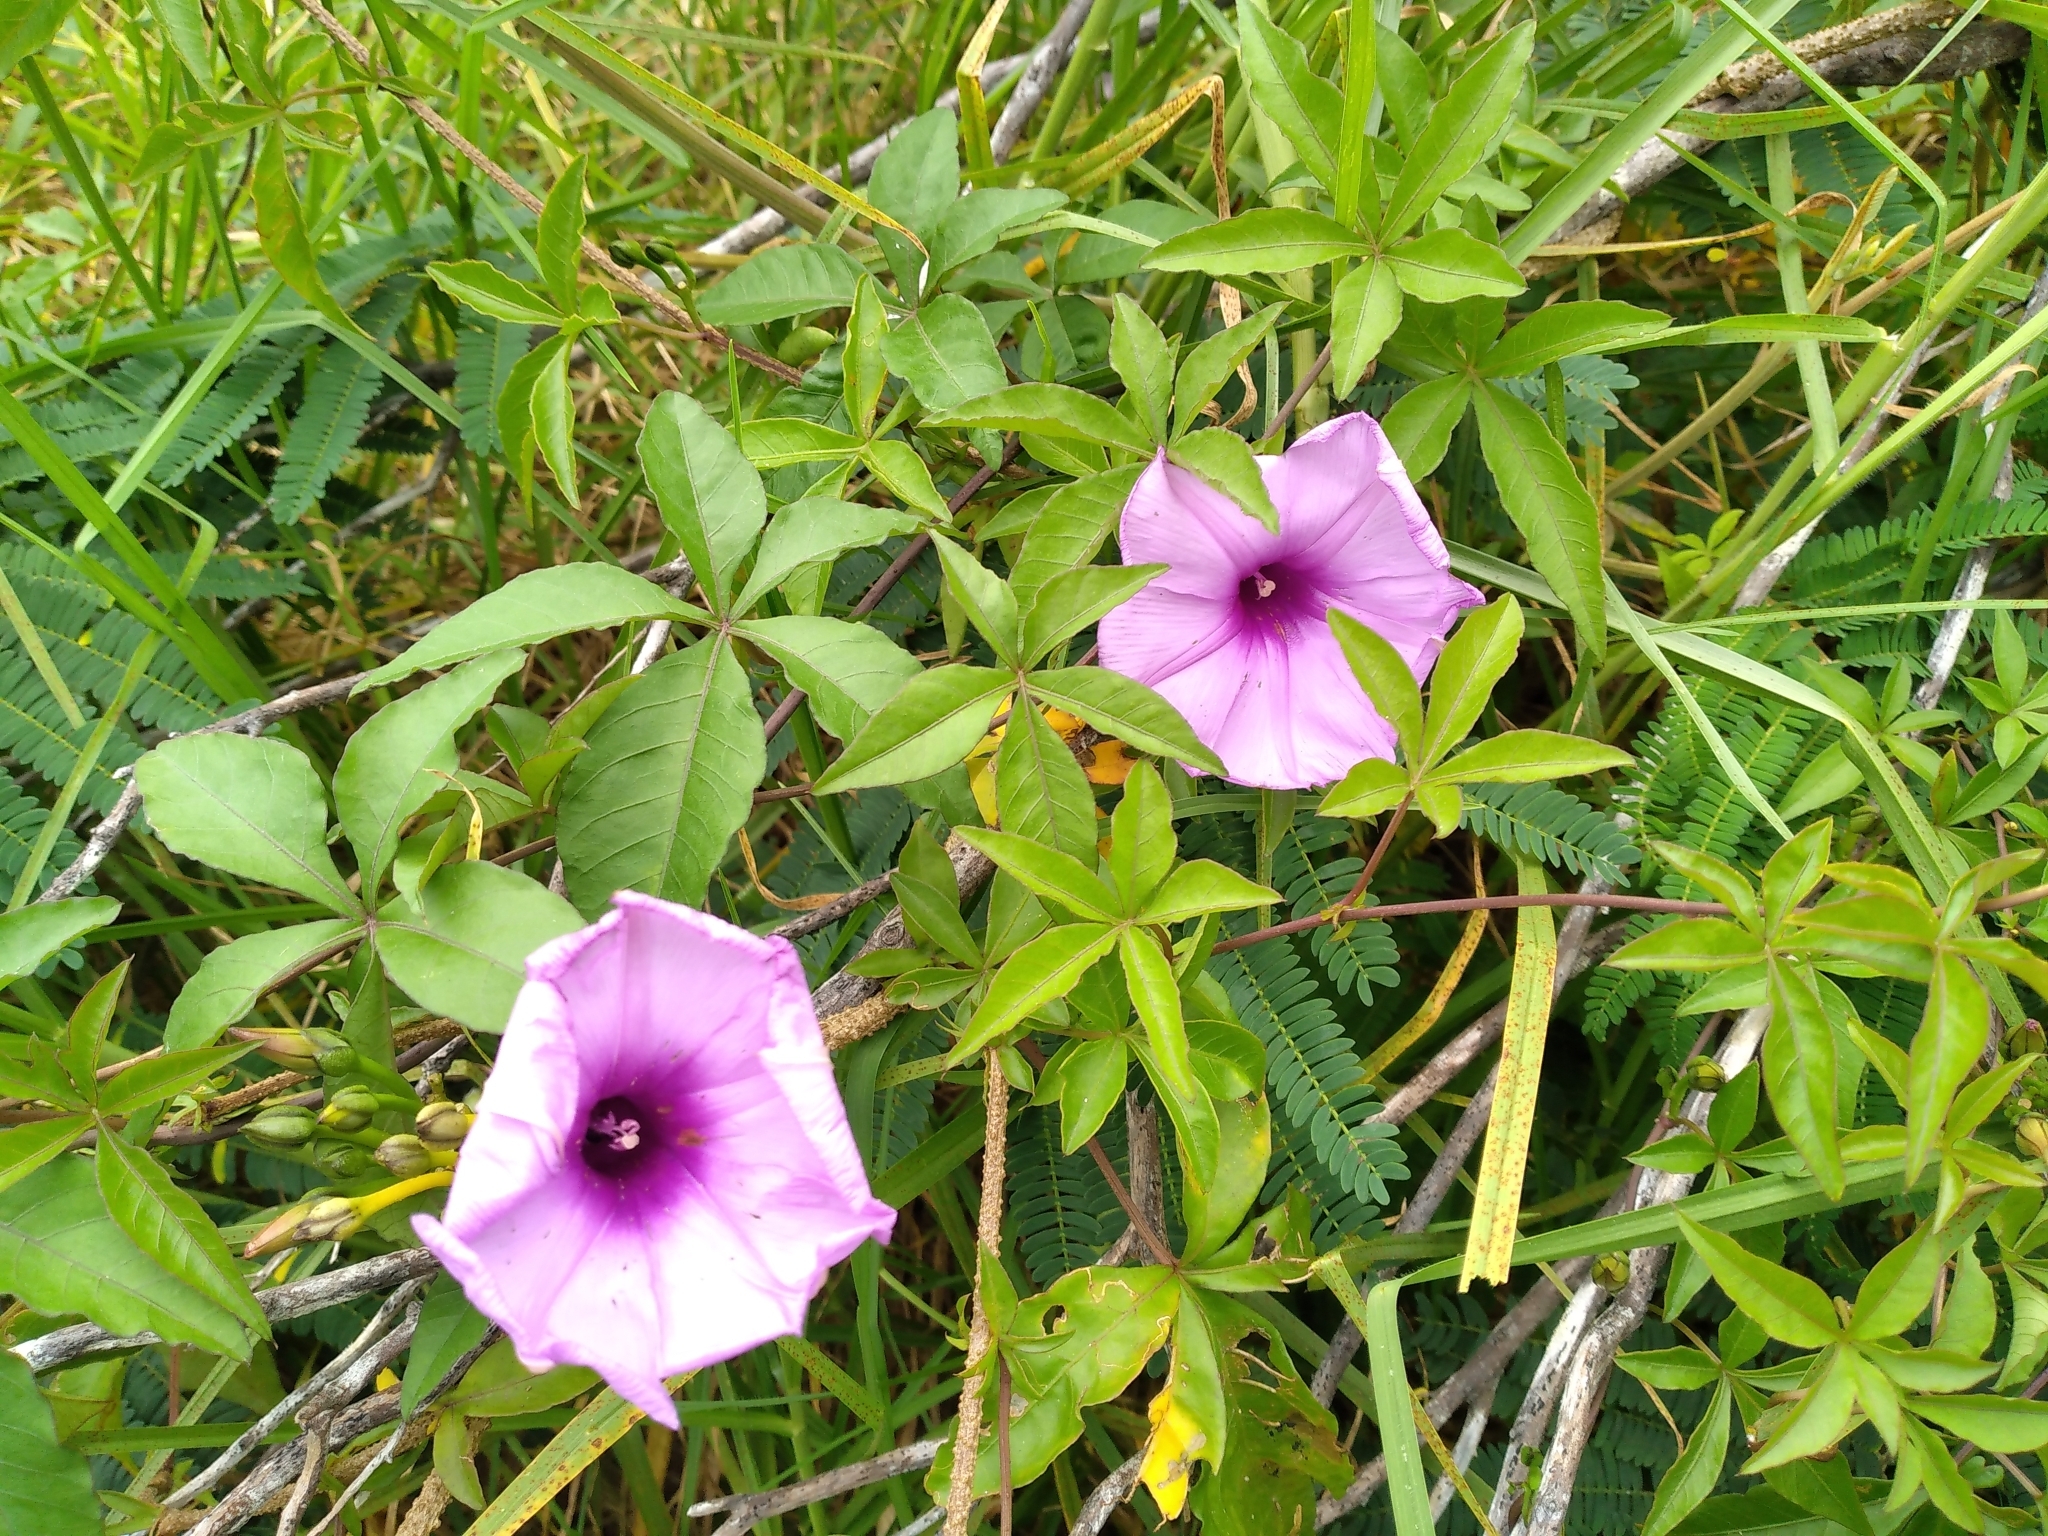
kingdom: Plantae
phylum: Tracheophyta
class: Magnoliopsida
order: Solanales
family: Convolvulaceae
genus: Ipomoea
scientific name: Ipomoea cairica
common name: Mile a minute vine
